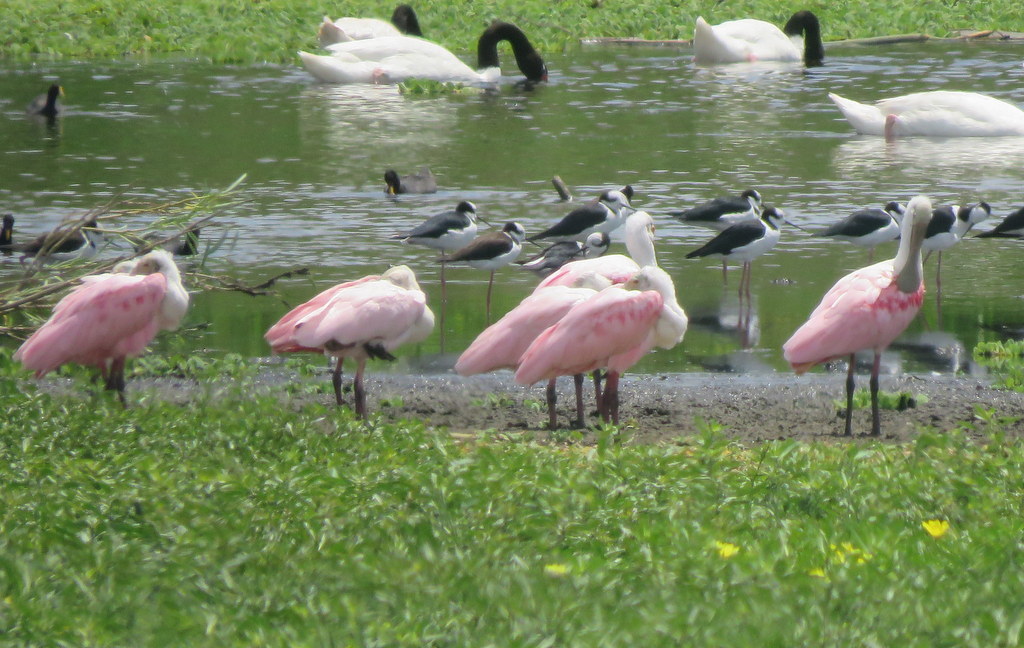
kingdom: Animalia
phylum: Chordata
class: Aves
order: Pelecaniformes
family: Threskiornithidae
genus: Platalea
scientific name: Platalea ajaja
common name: Roseate spoonbill
